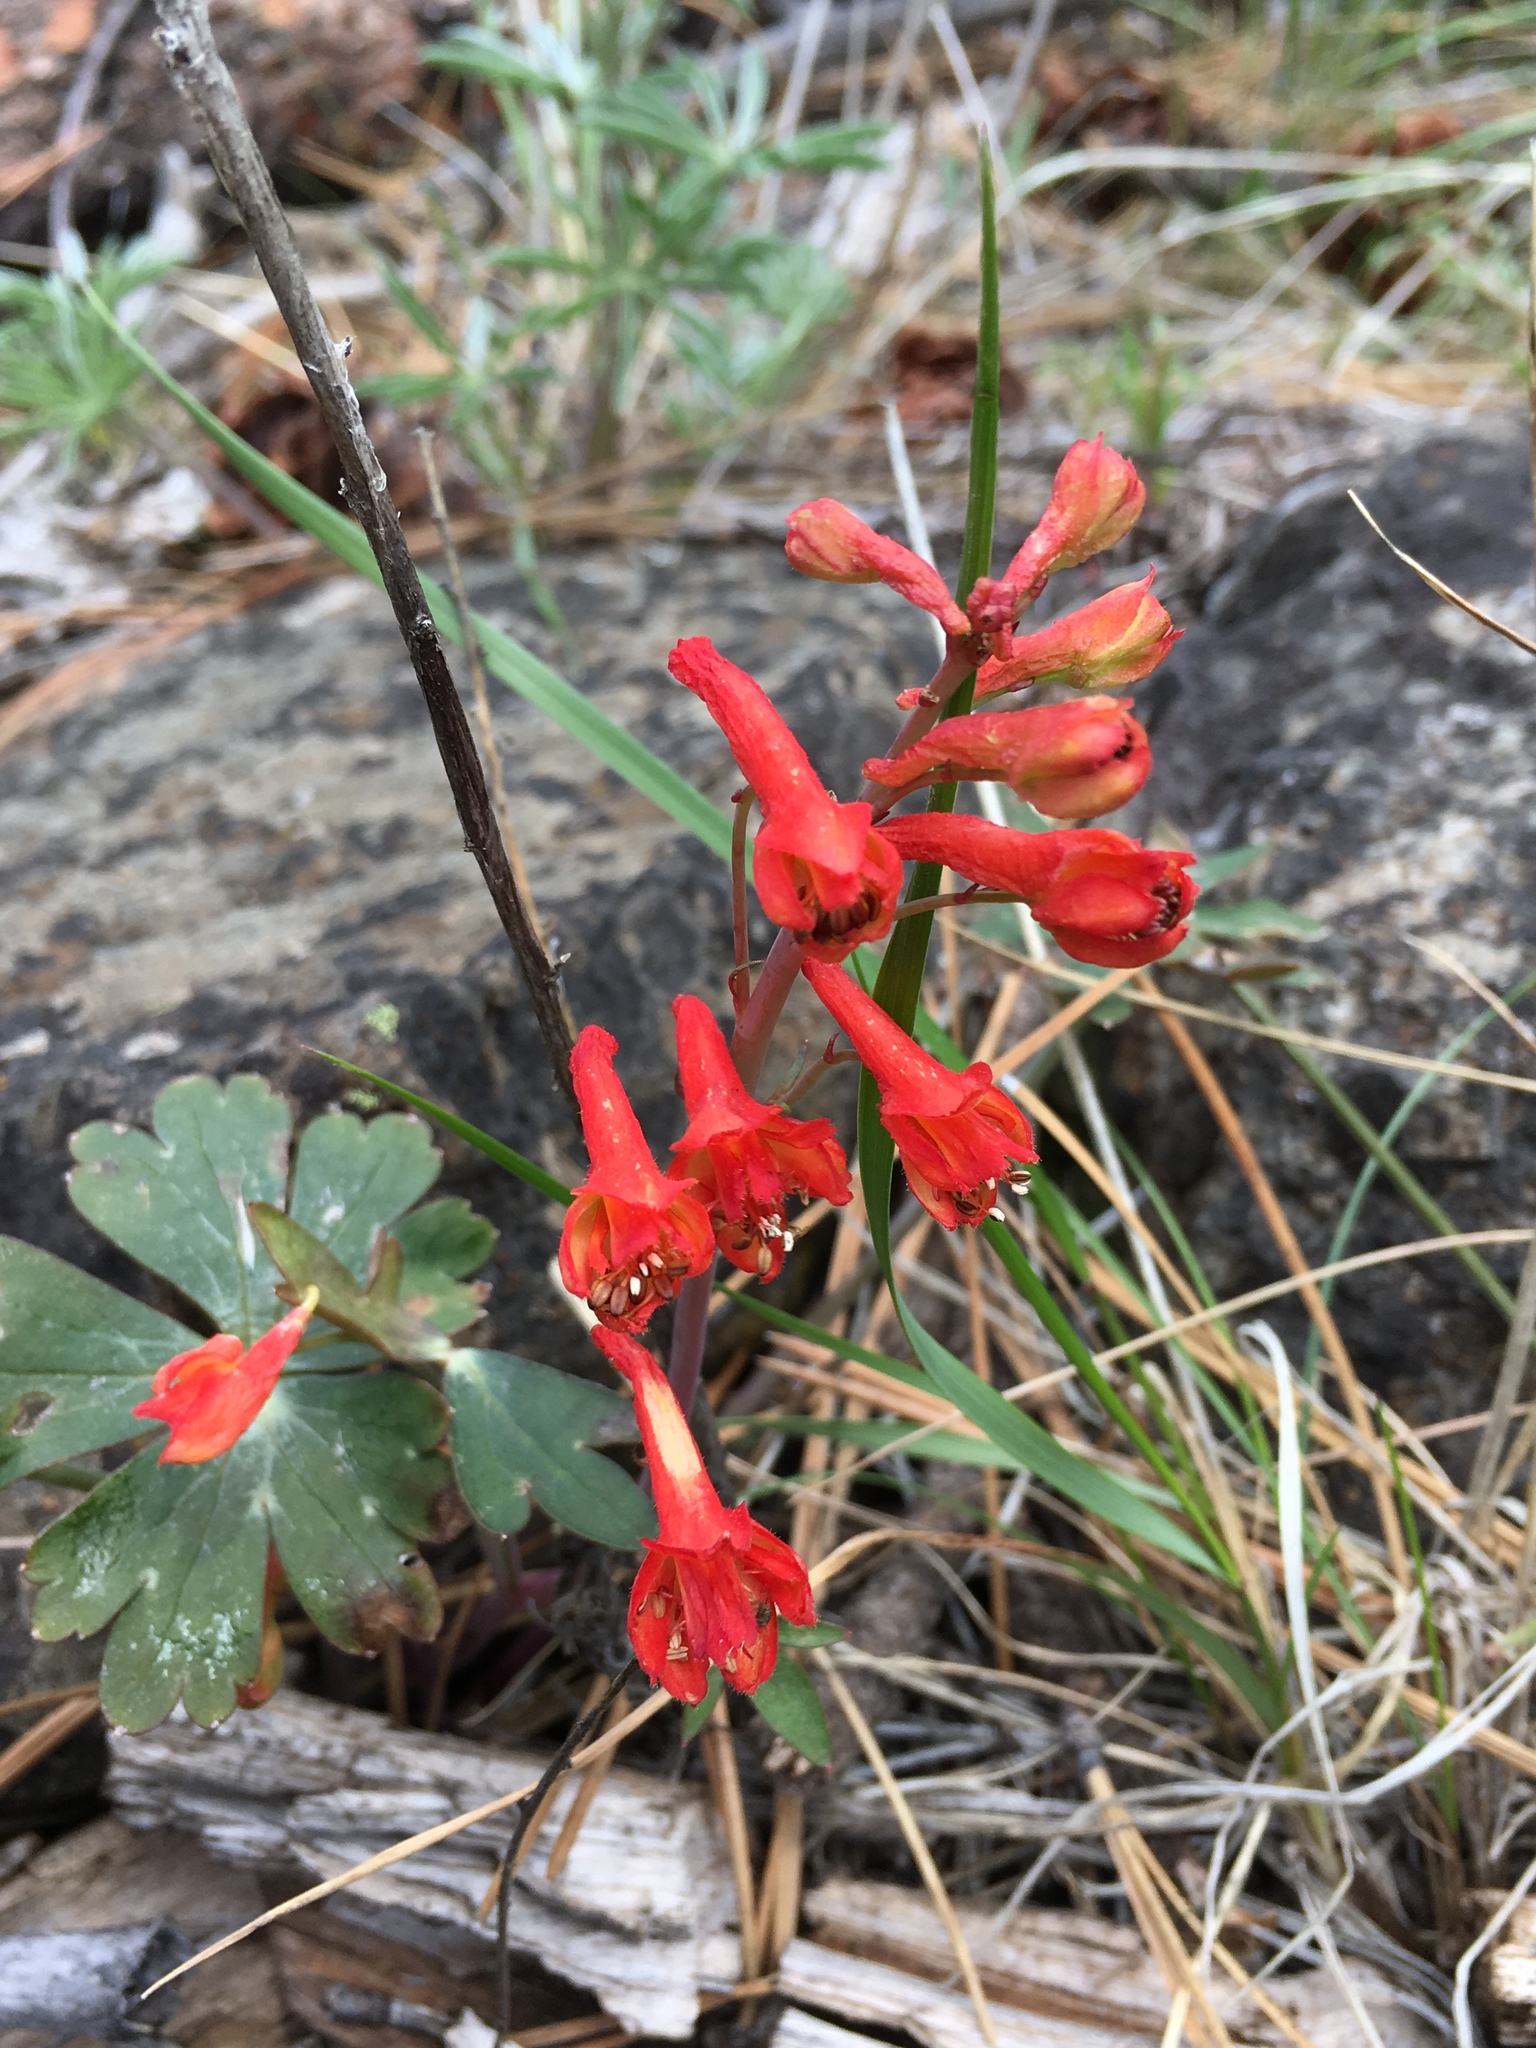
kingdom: Plantae
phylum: Tracheophyta
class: Magnoliopsida
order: Ranunculales
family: Ranunculaceae
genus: Delphinium
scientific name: Delphinium nudicaule
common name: Red larkspur
